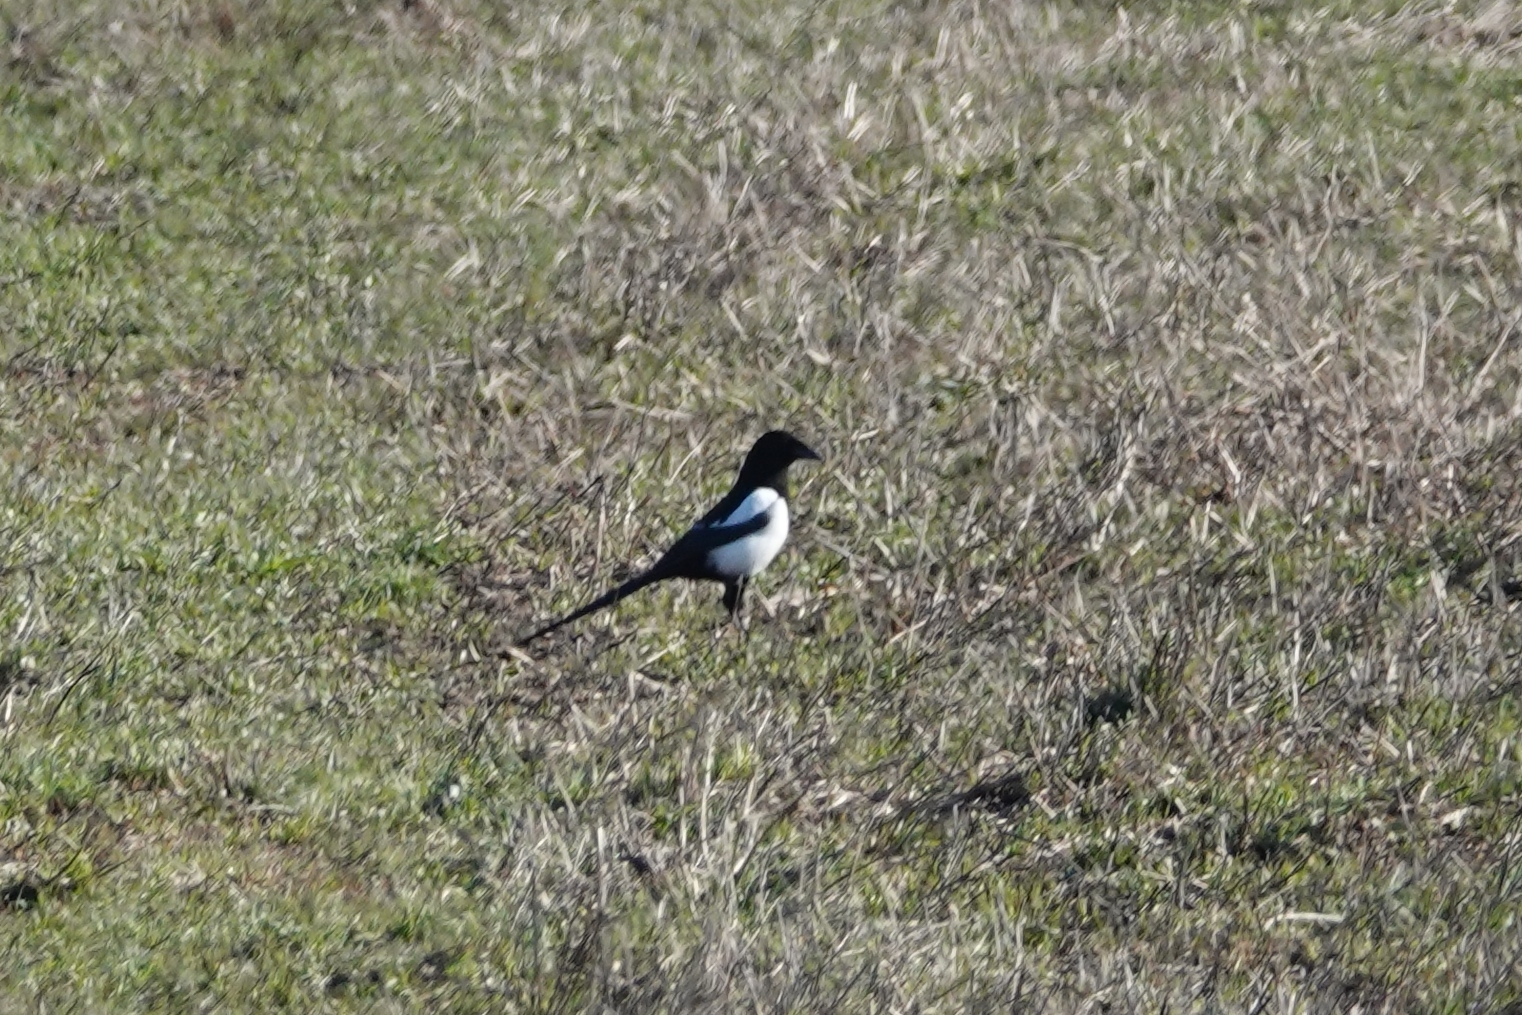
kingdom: Animalia
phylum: Chordata
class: Aves
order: Passeriformes
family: Corvidae
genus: Pica
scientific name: Pica pica
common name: Eurasian magpie
